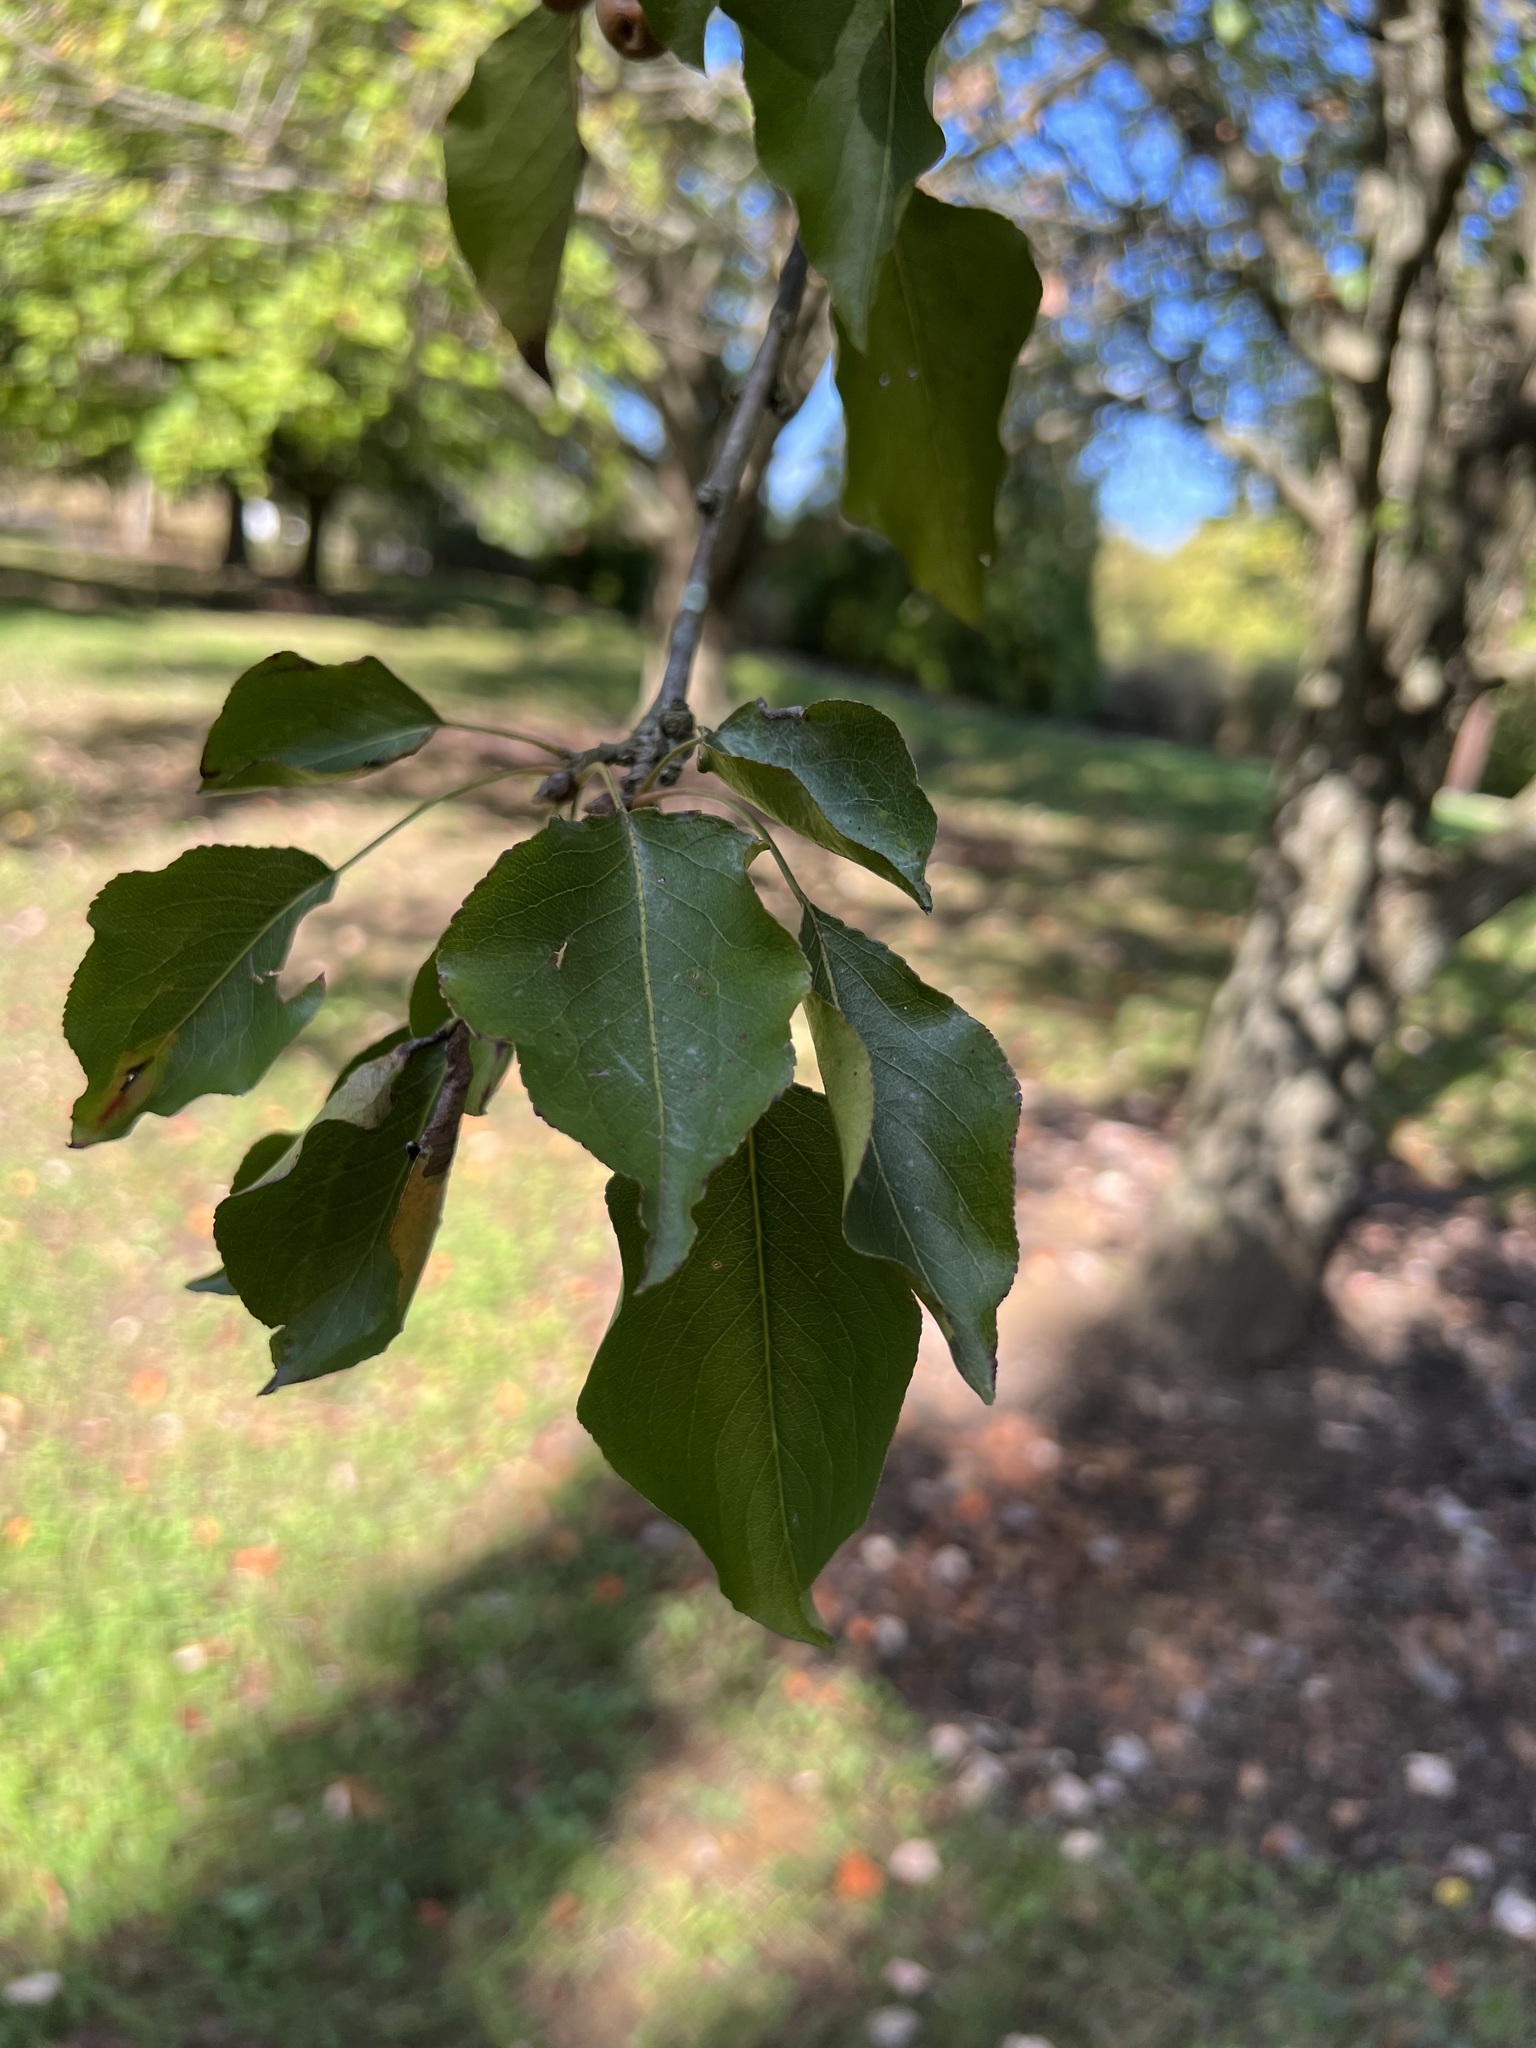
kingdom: Plantae
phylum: Tracheophyta
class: Magnoliopsida
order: Rosales
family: Rosaceae
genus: Pyrus
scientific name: Pyrus calleryana
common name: Callery pear
